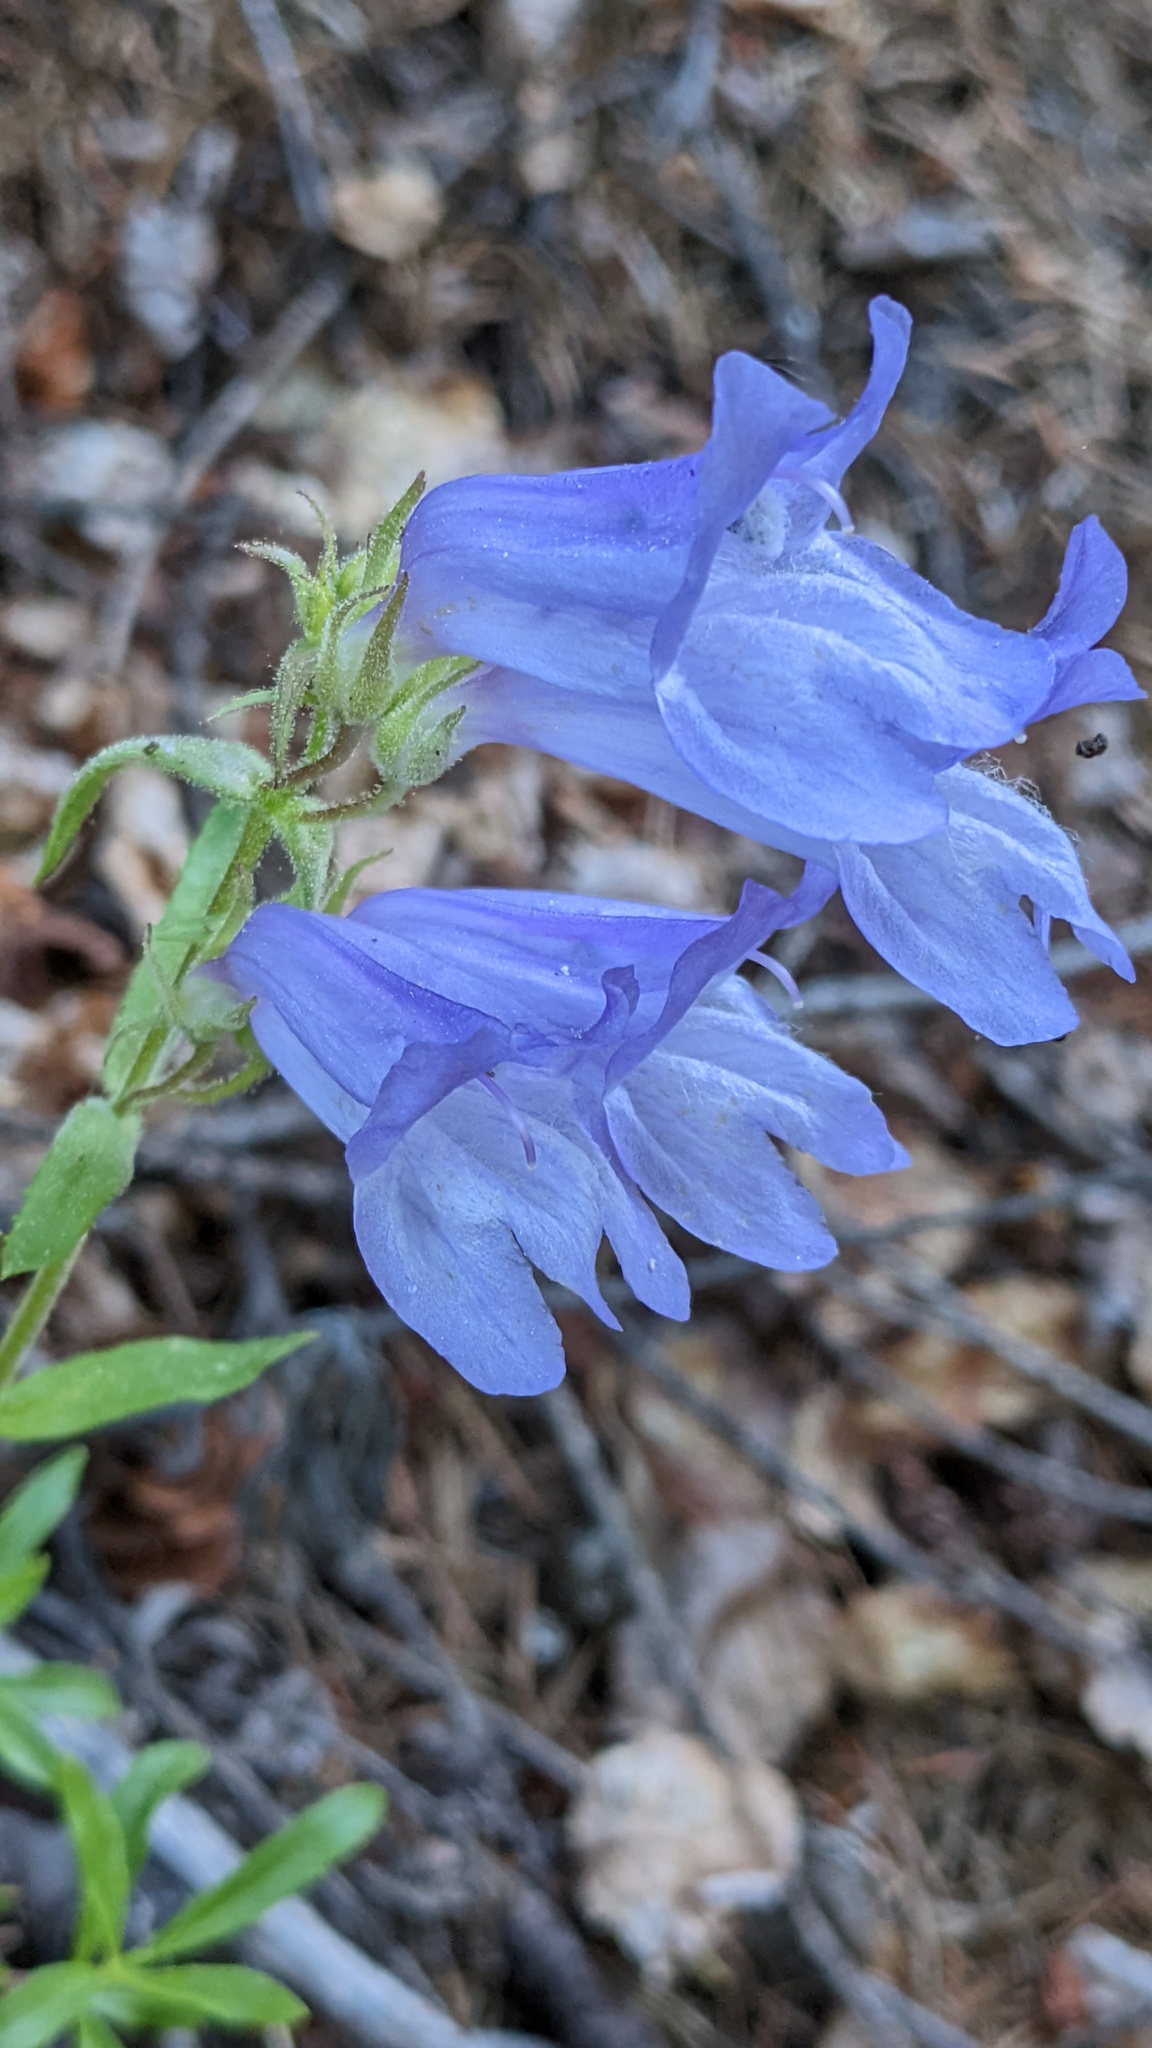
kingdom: Plantae
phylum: Tracheophyta
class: Magnoliopsida
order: Lamiales
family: Plantaginaceae
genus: Penstemon
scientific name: Penstemon fruticosus
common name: Bush penstemon
